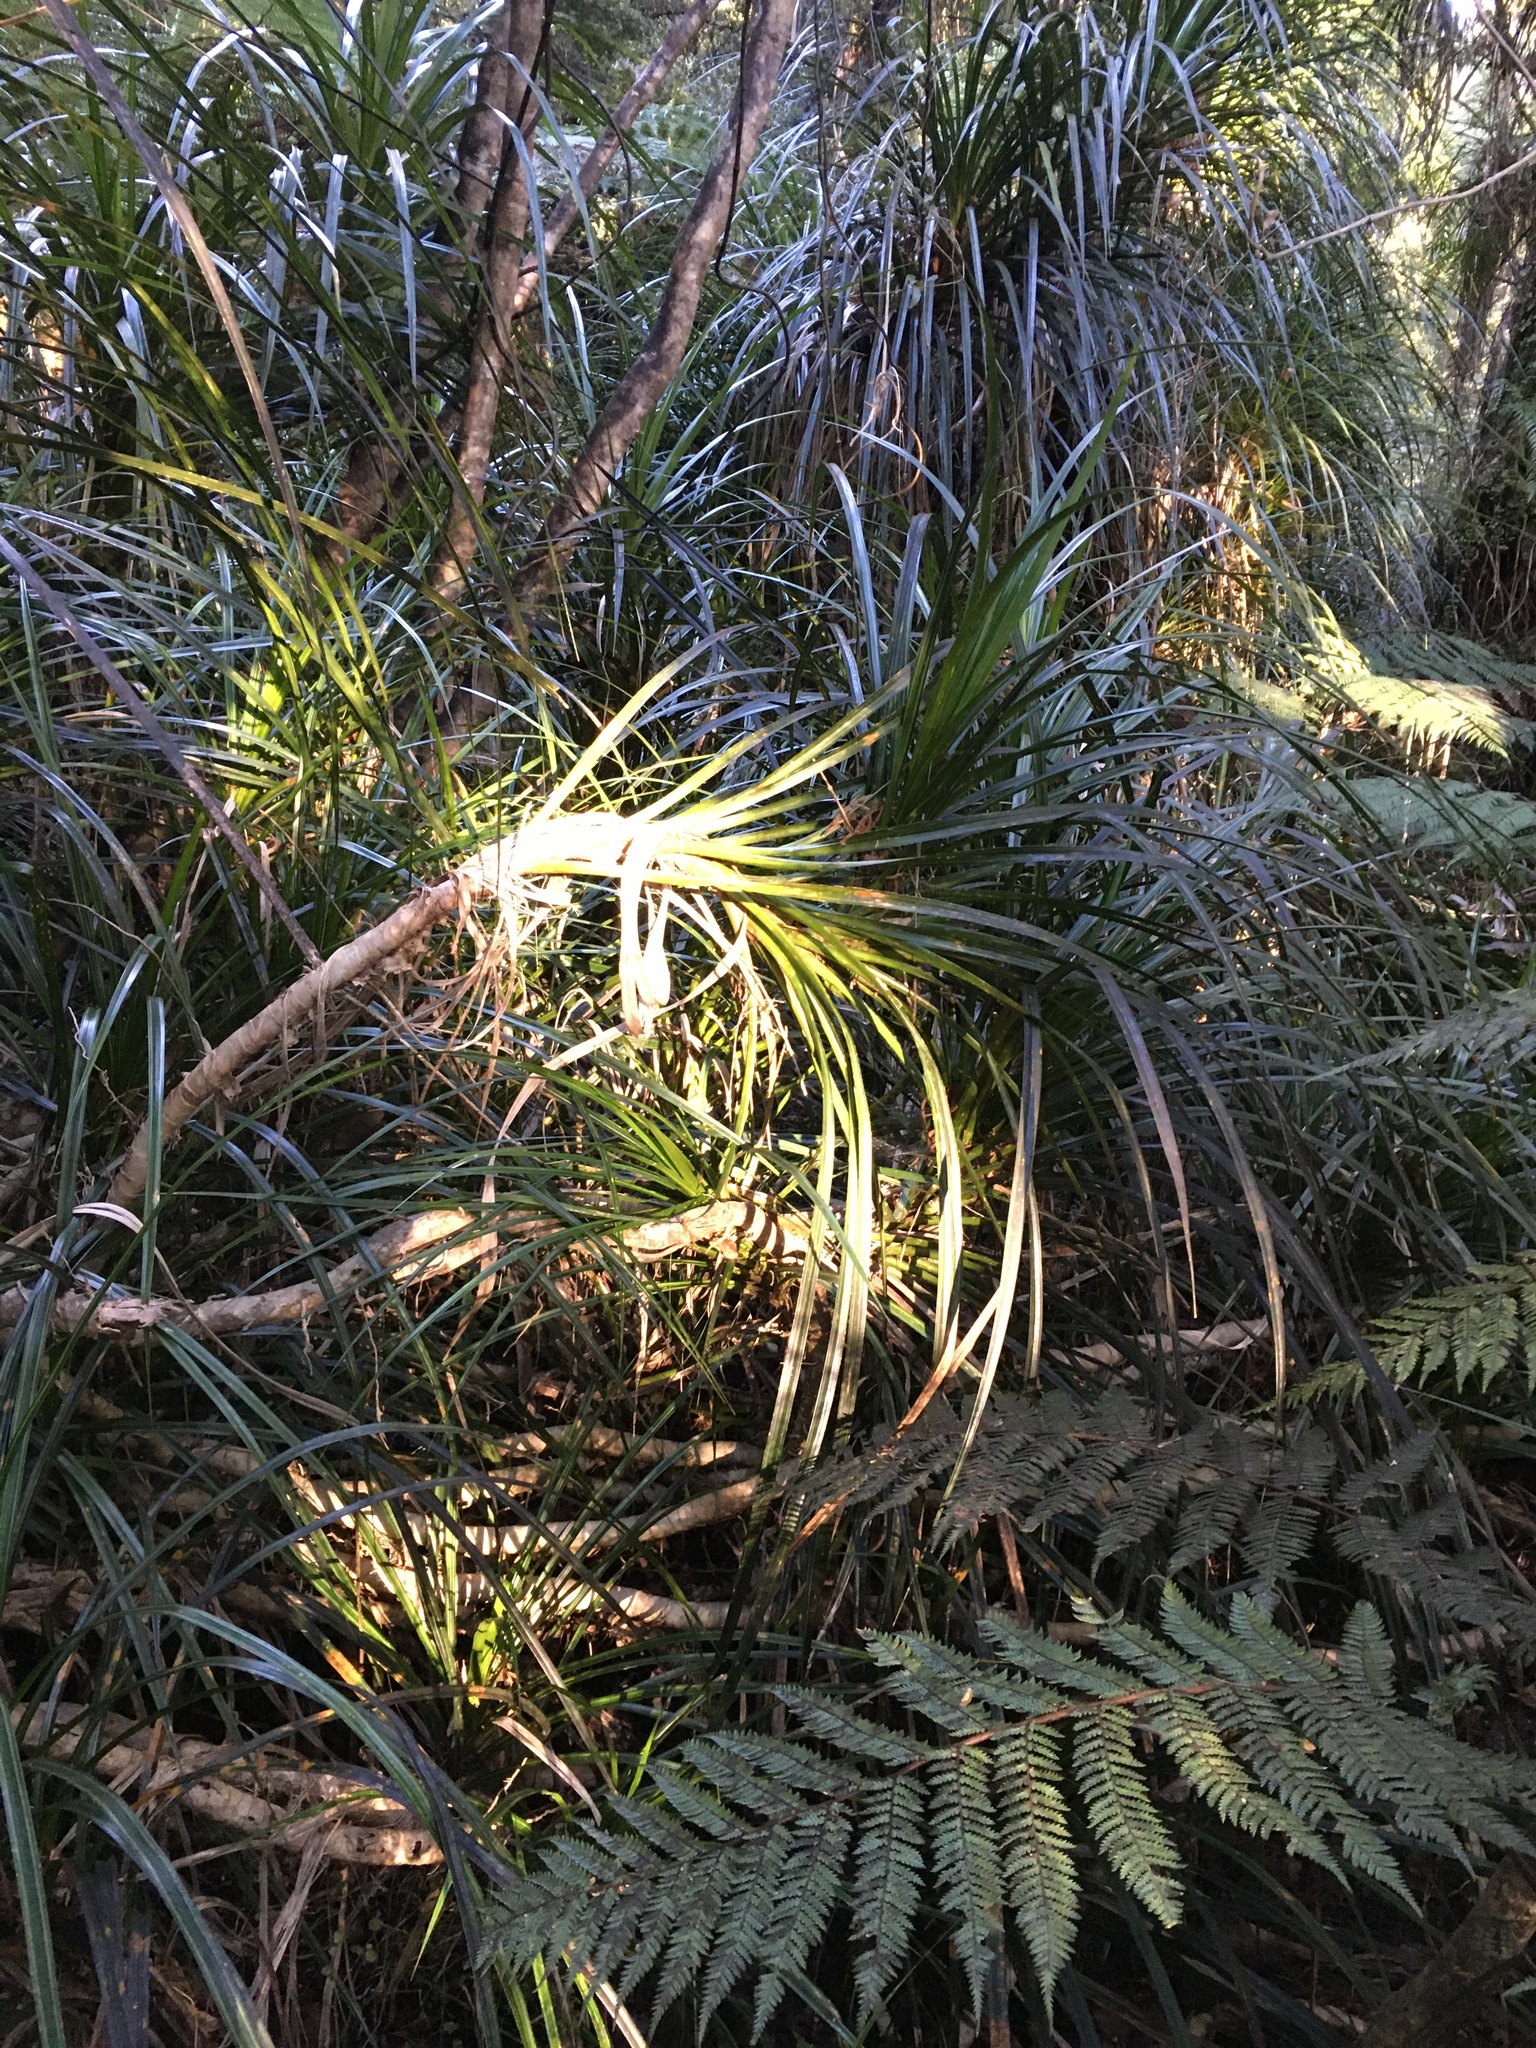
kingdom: Plantae
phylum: Tracheophyta
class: Liliopsida
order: Pandanales
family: Pandanaceae
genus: Freycinetia
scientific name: Freycinetia banksii
